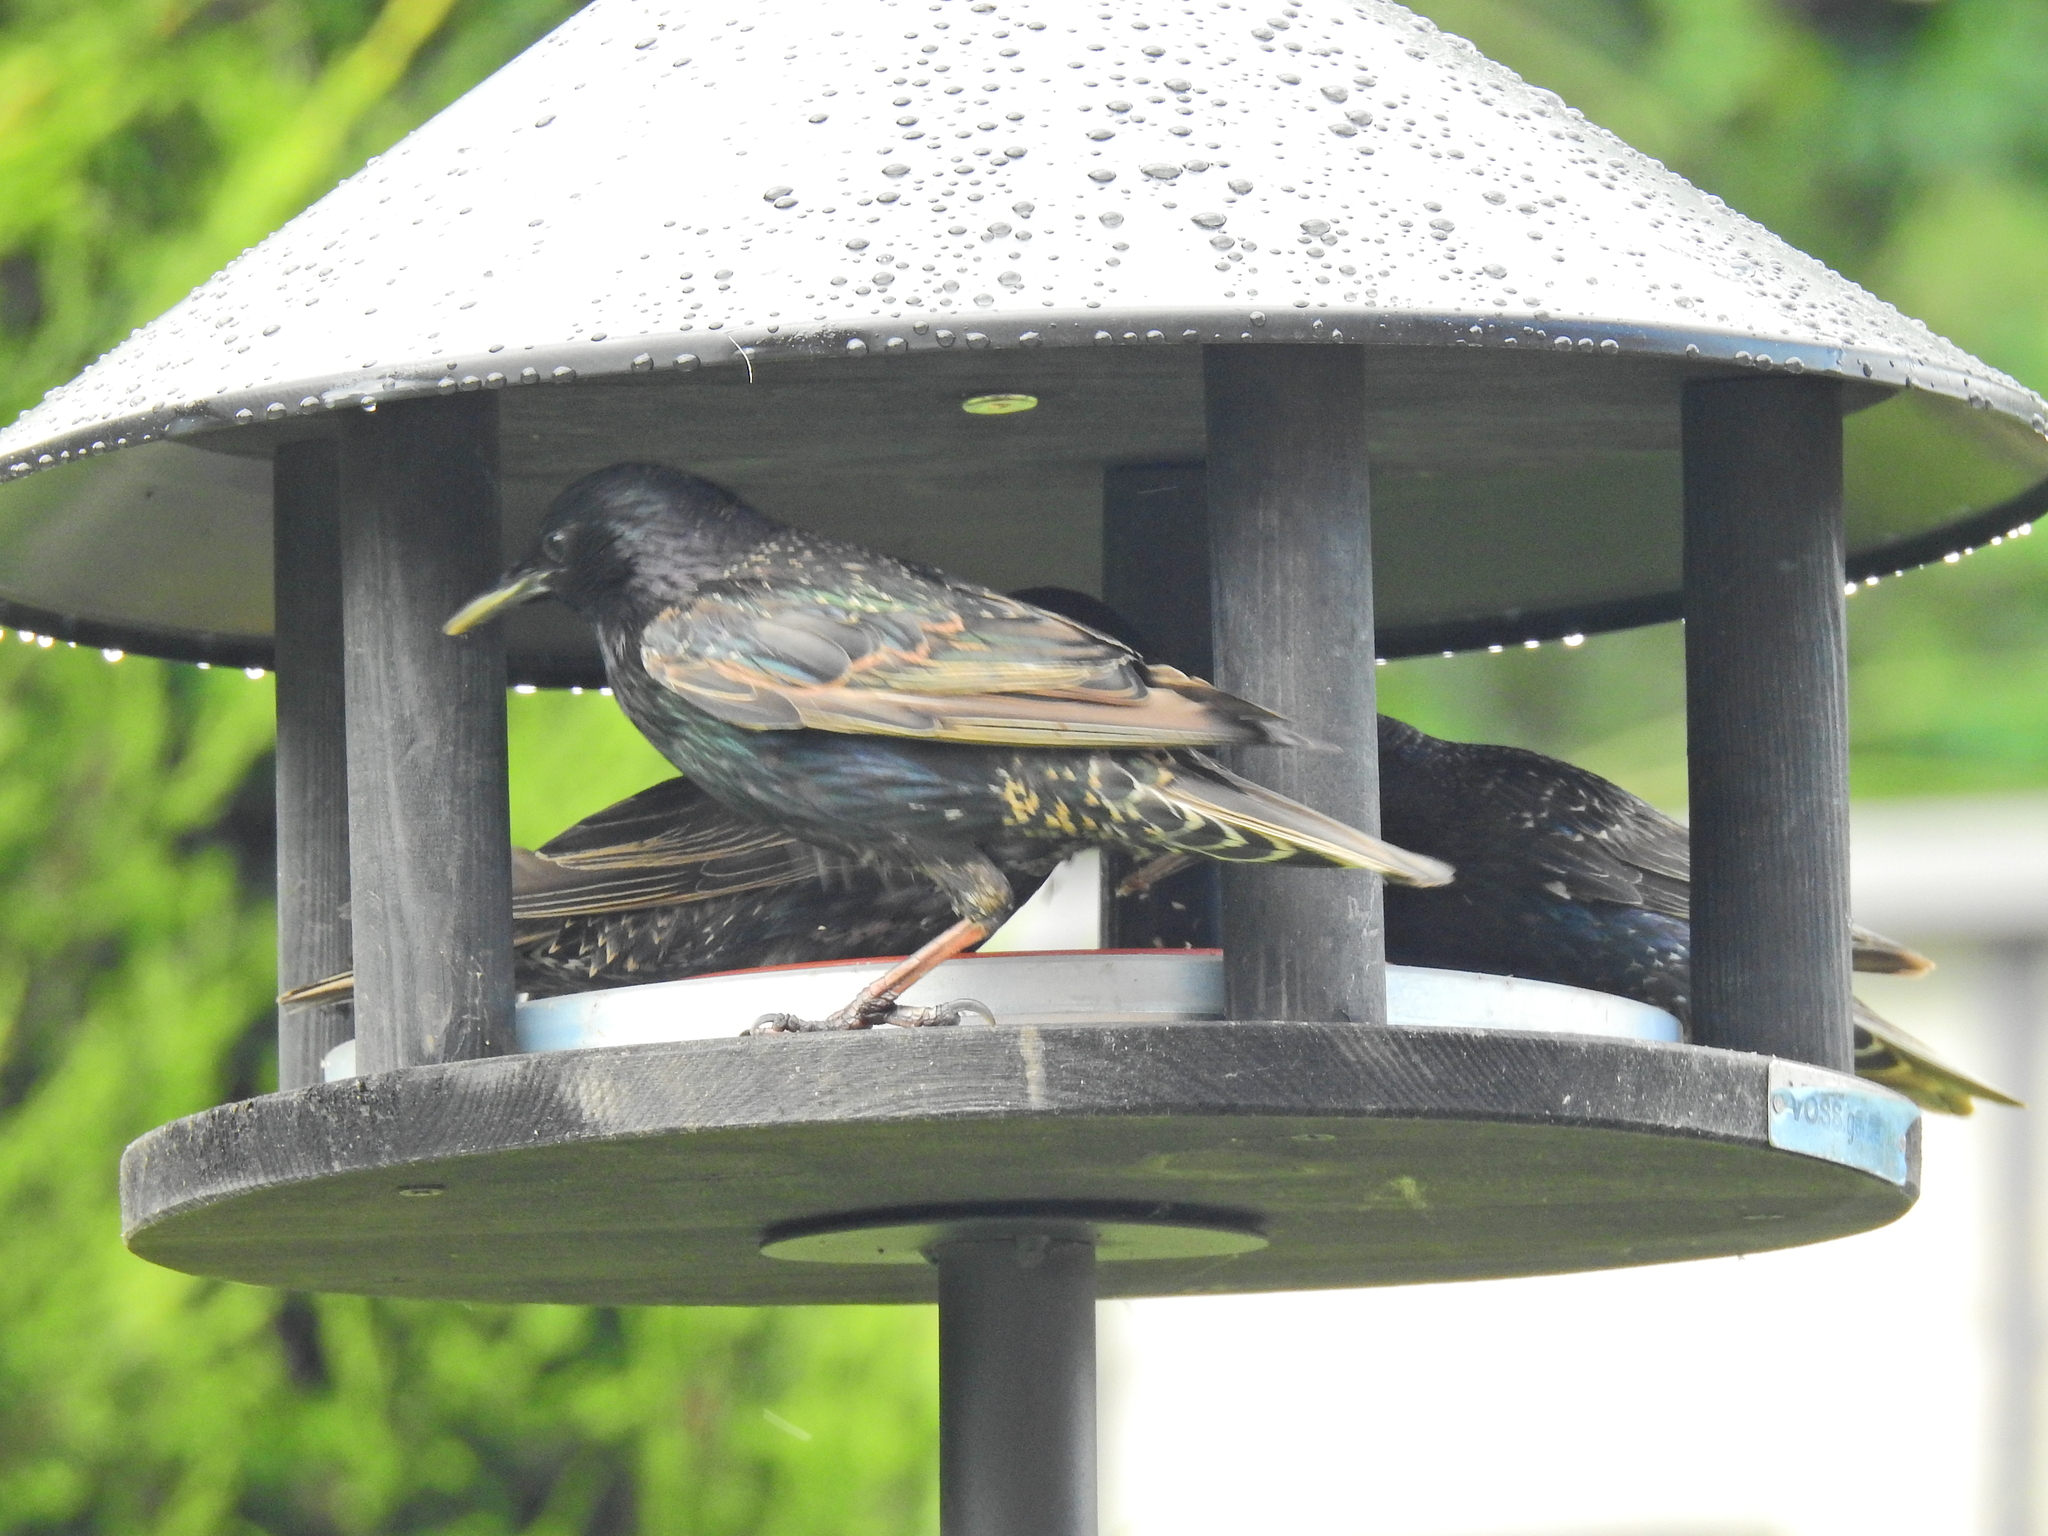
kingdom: Animalia
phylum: Chordata
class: Aves
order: Passeriformes
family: Sturnidae
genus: Sturnus
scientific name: Sturnus vulgaris
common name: Common starling
